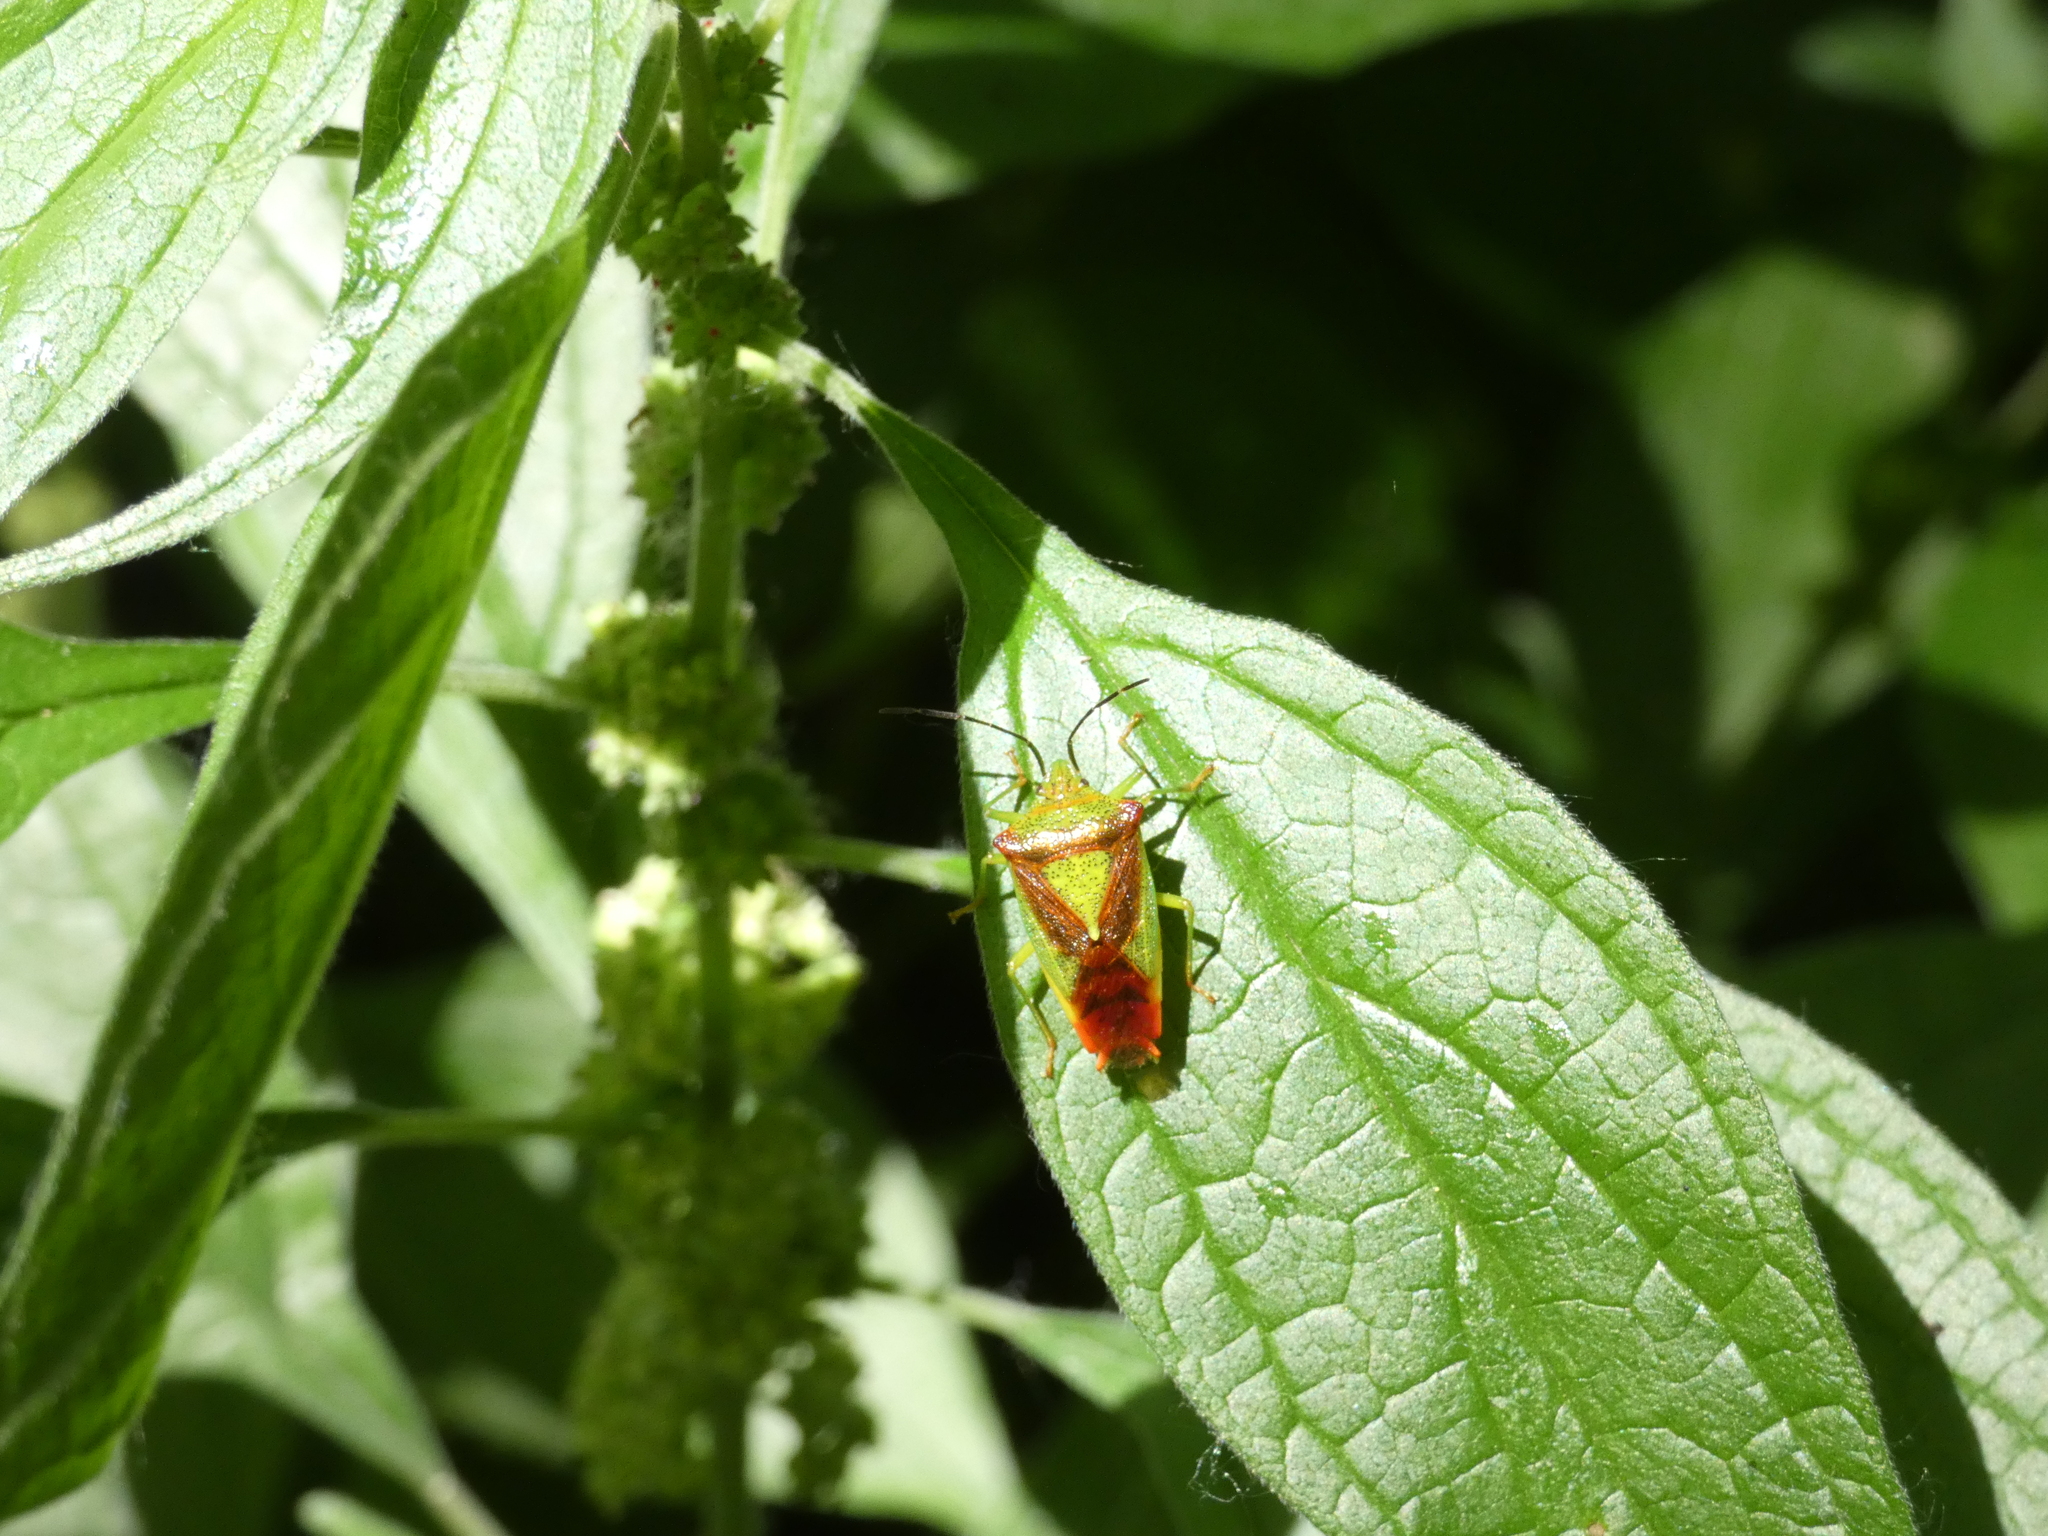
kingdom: Animalia
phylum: Arthropoda
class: Insecta
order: Hemiptera
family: Acanthosomatidae
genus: Acanthosoma
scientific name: Acanthosoma haemorrhoidale
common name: Hawthorn shieldbug
